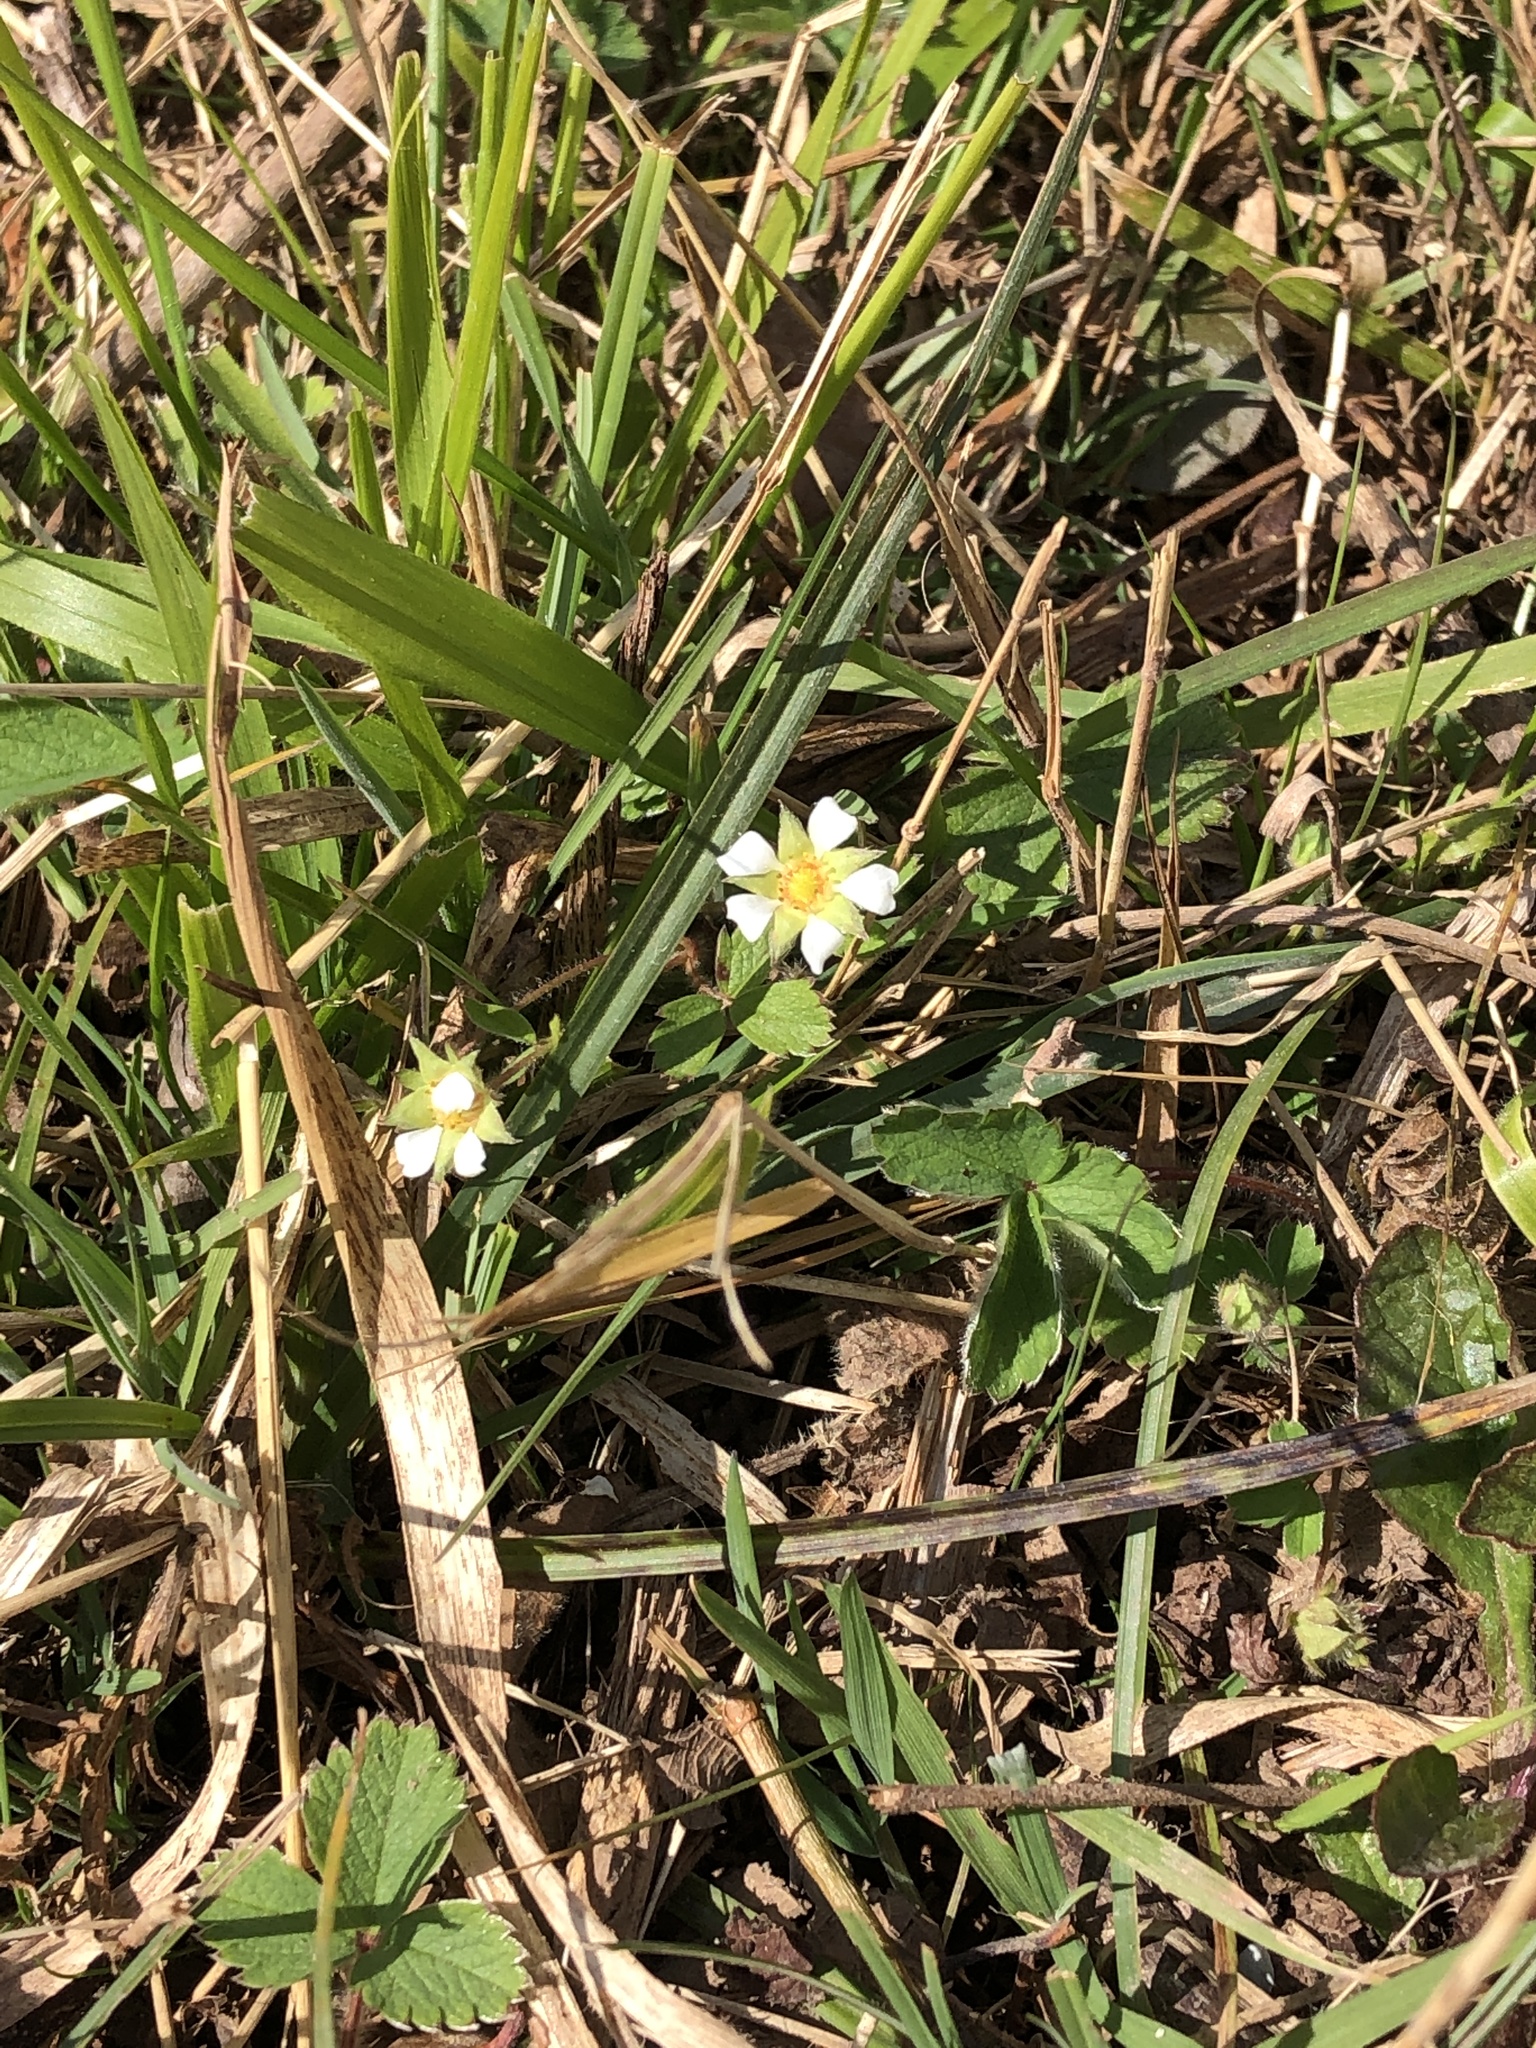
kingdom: Plantae
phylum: Tracheophyta
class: Magnoliopsida
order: Rosales
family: Rosaceae
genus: Potentilla
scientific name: Potentilla sterilis
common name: Barren strawberry
